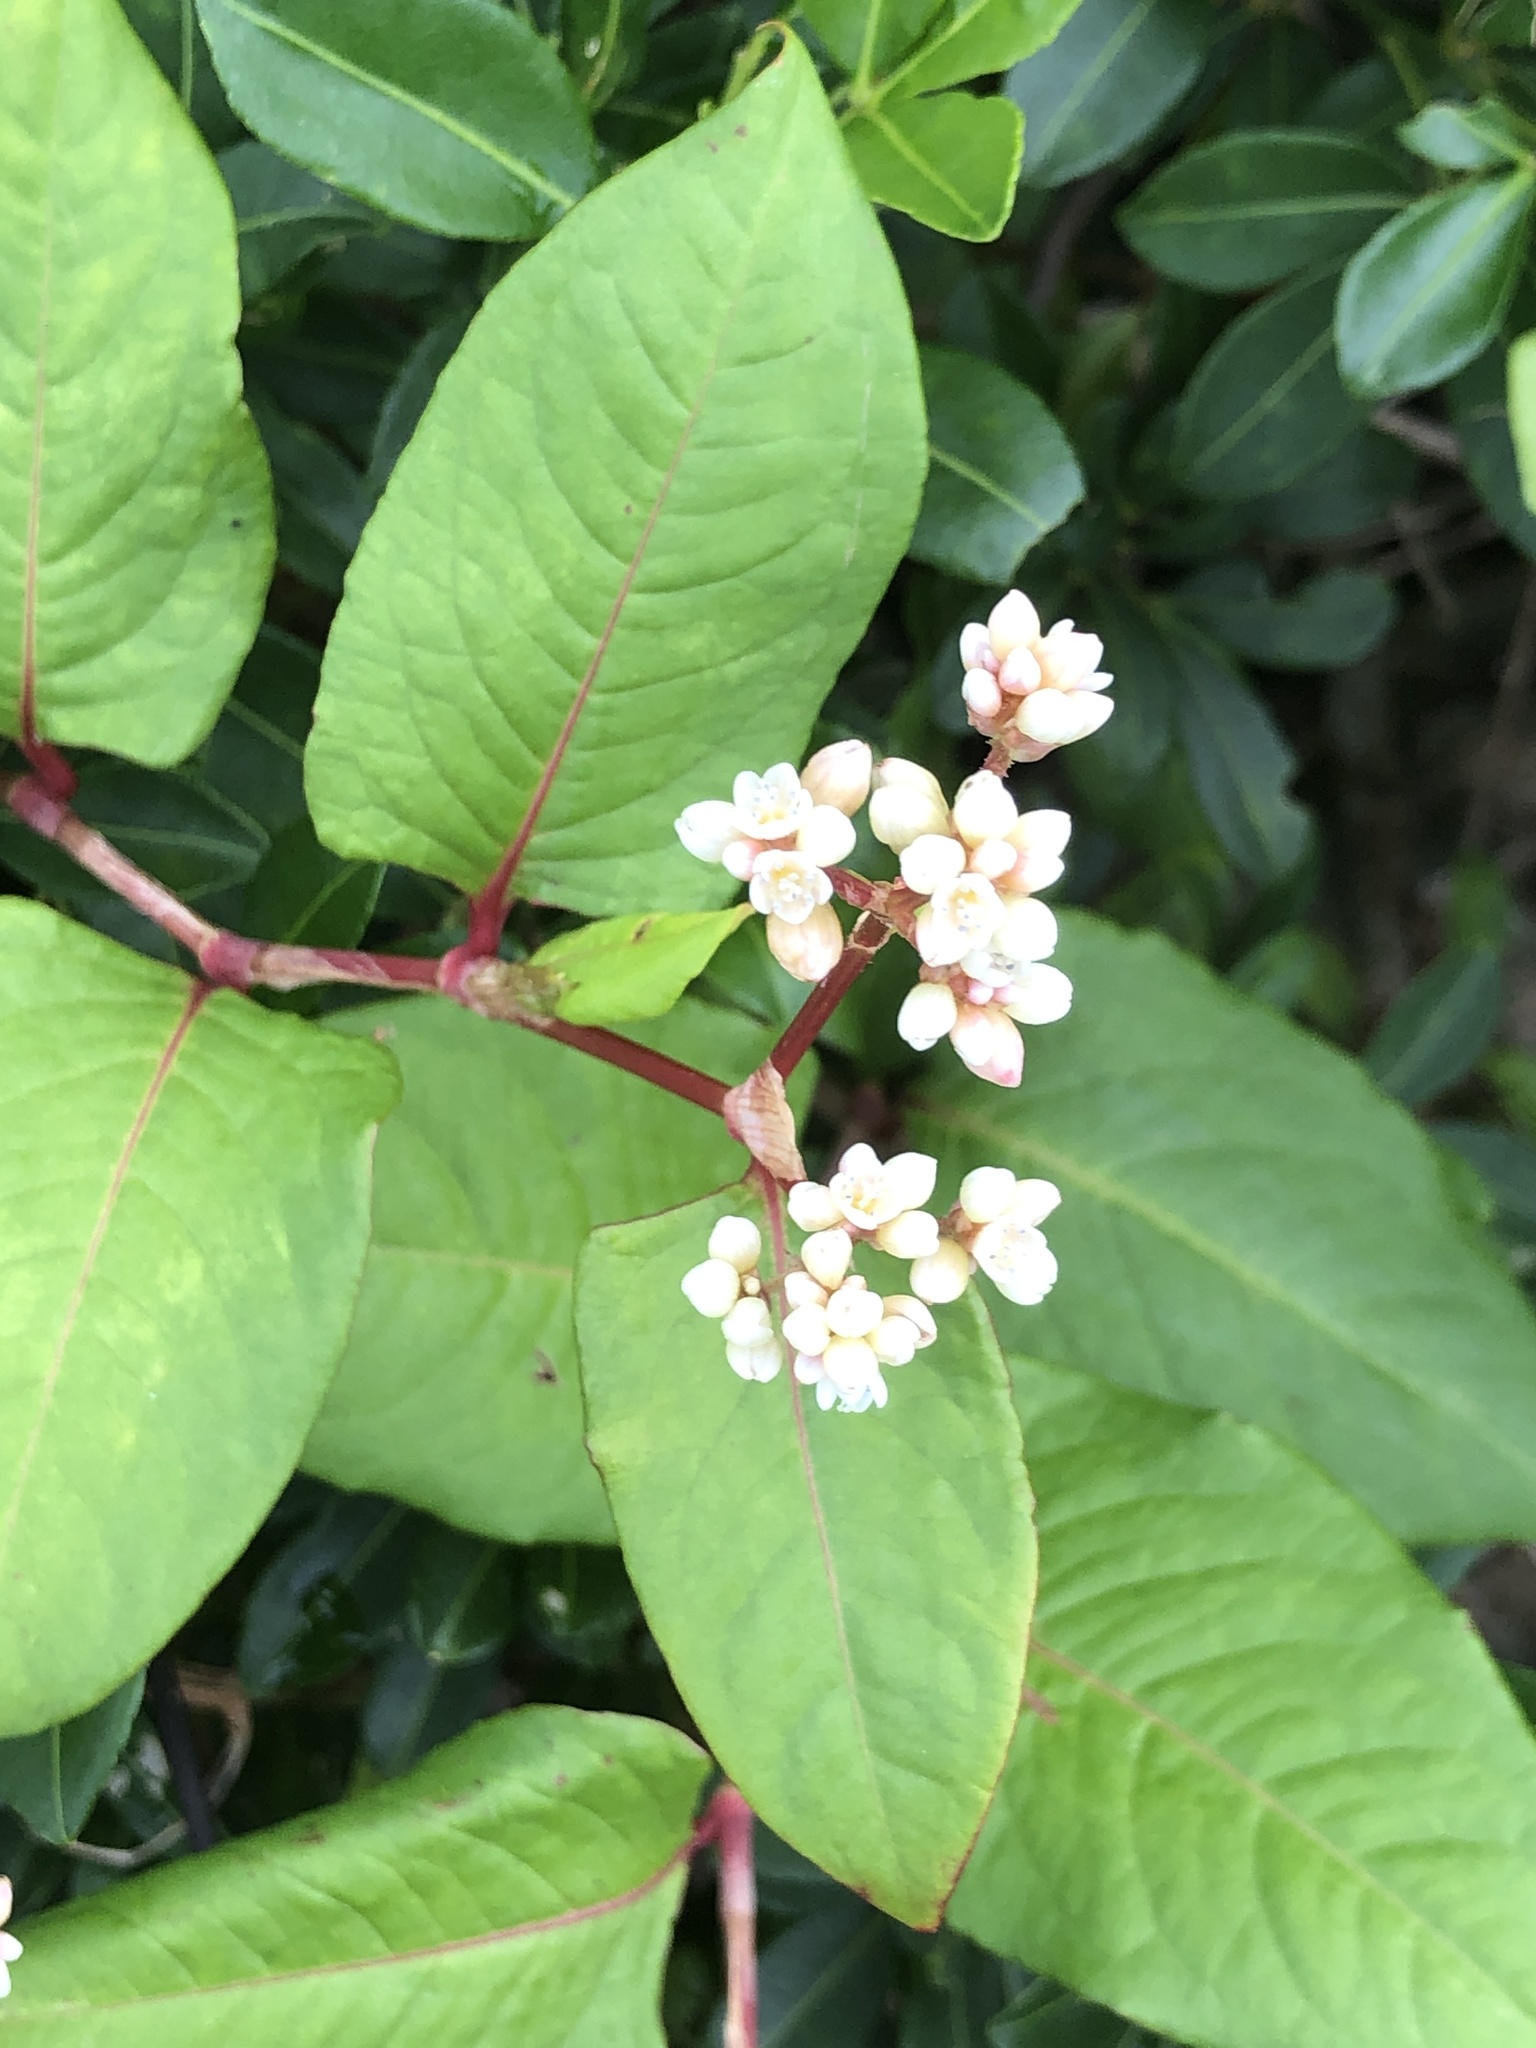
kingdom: Plantae
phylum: Tracheophyta
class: Magnoliopsida
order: Caryophyllales
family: Polygonaceae
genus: Persicaria
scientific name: Persicaria chinensis
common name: Chinese knotweed
